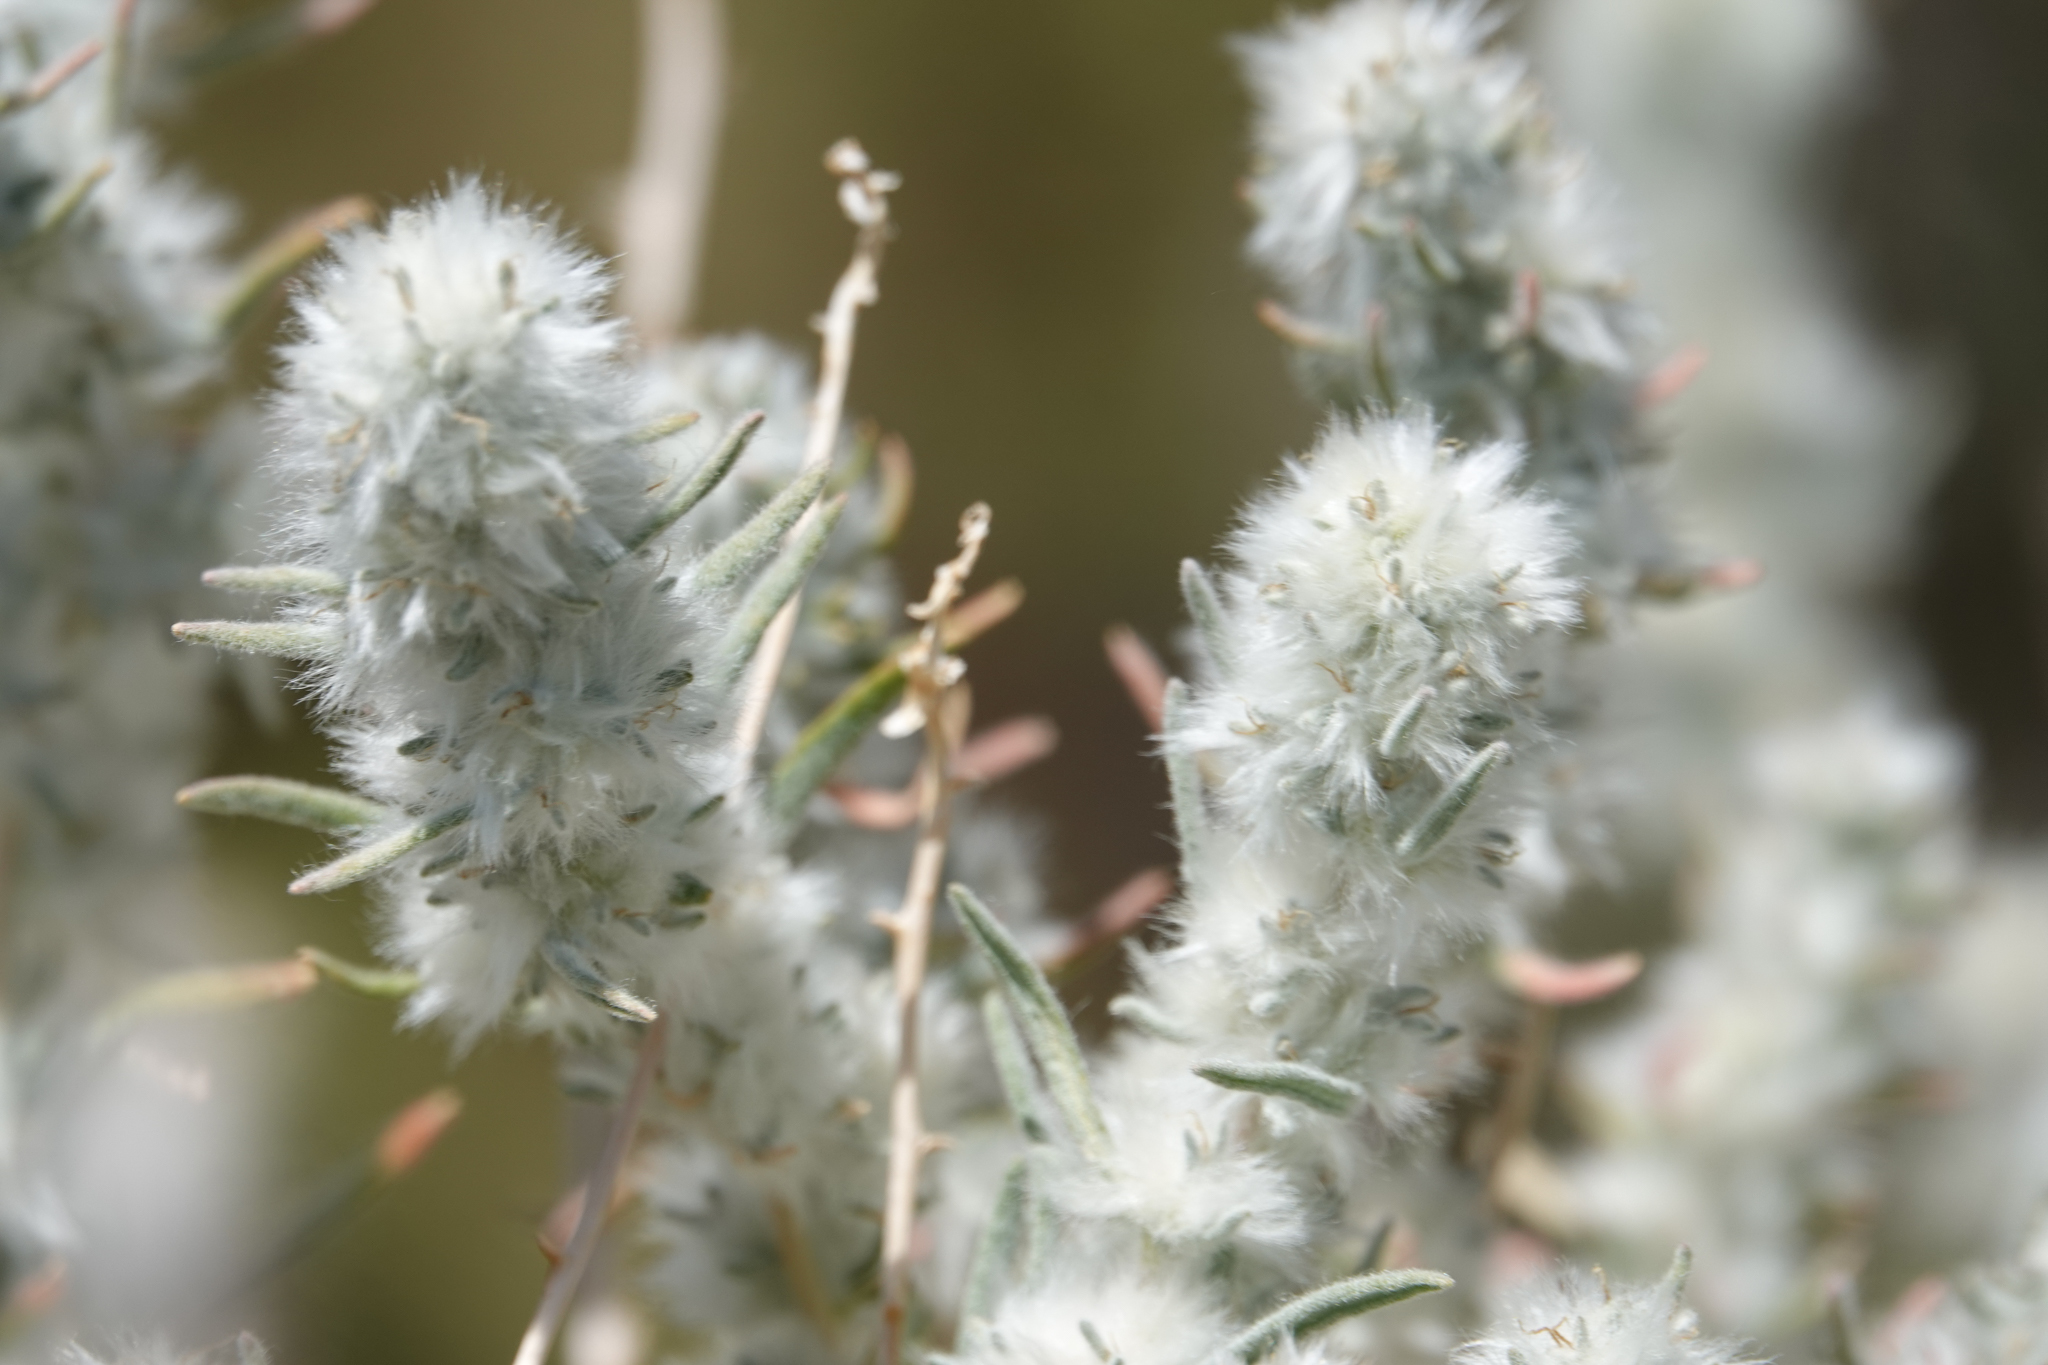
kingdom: Plantae
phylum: Tracheophyta
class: Magnoliopsida
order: Caryophyllales
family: Amaranthaceae
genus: Krascheninnikovia
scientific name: Krascheninnikovia lanata
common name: Winterfat
